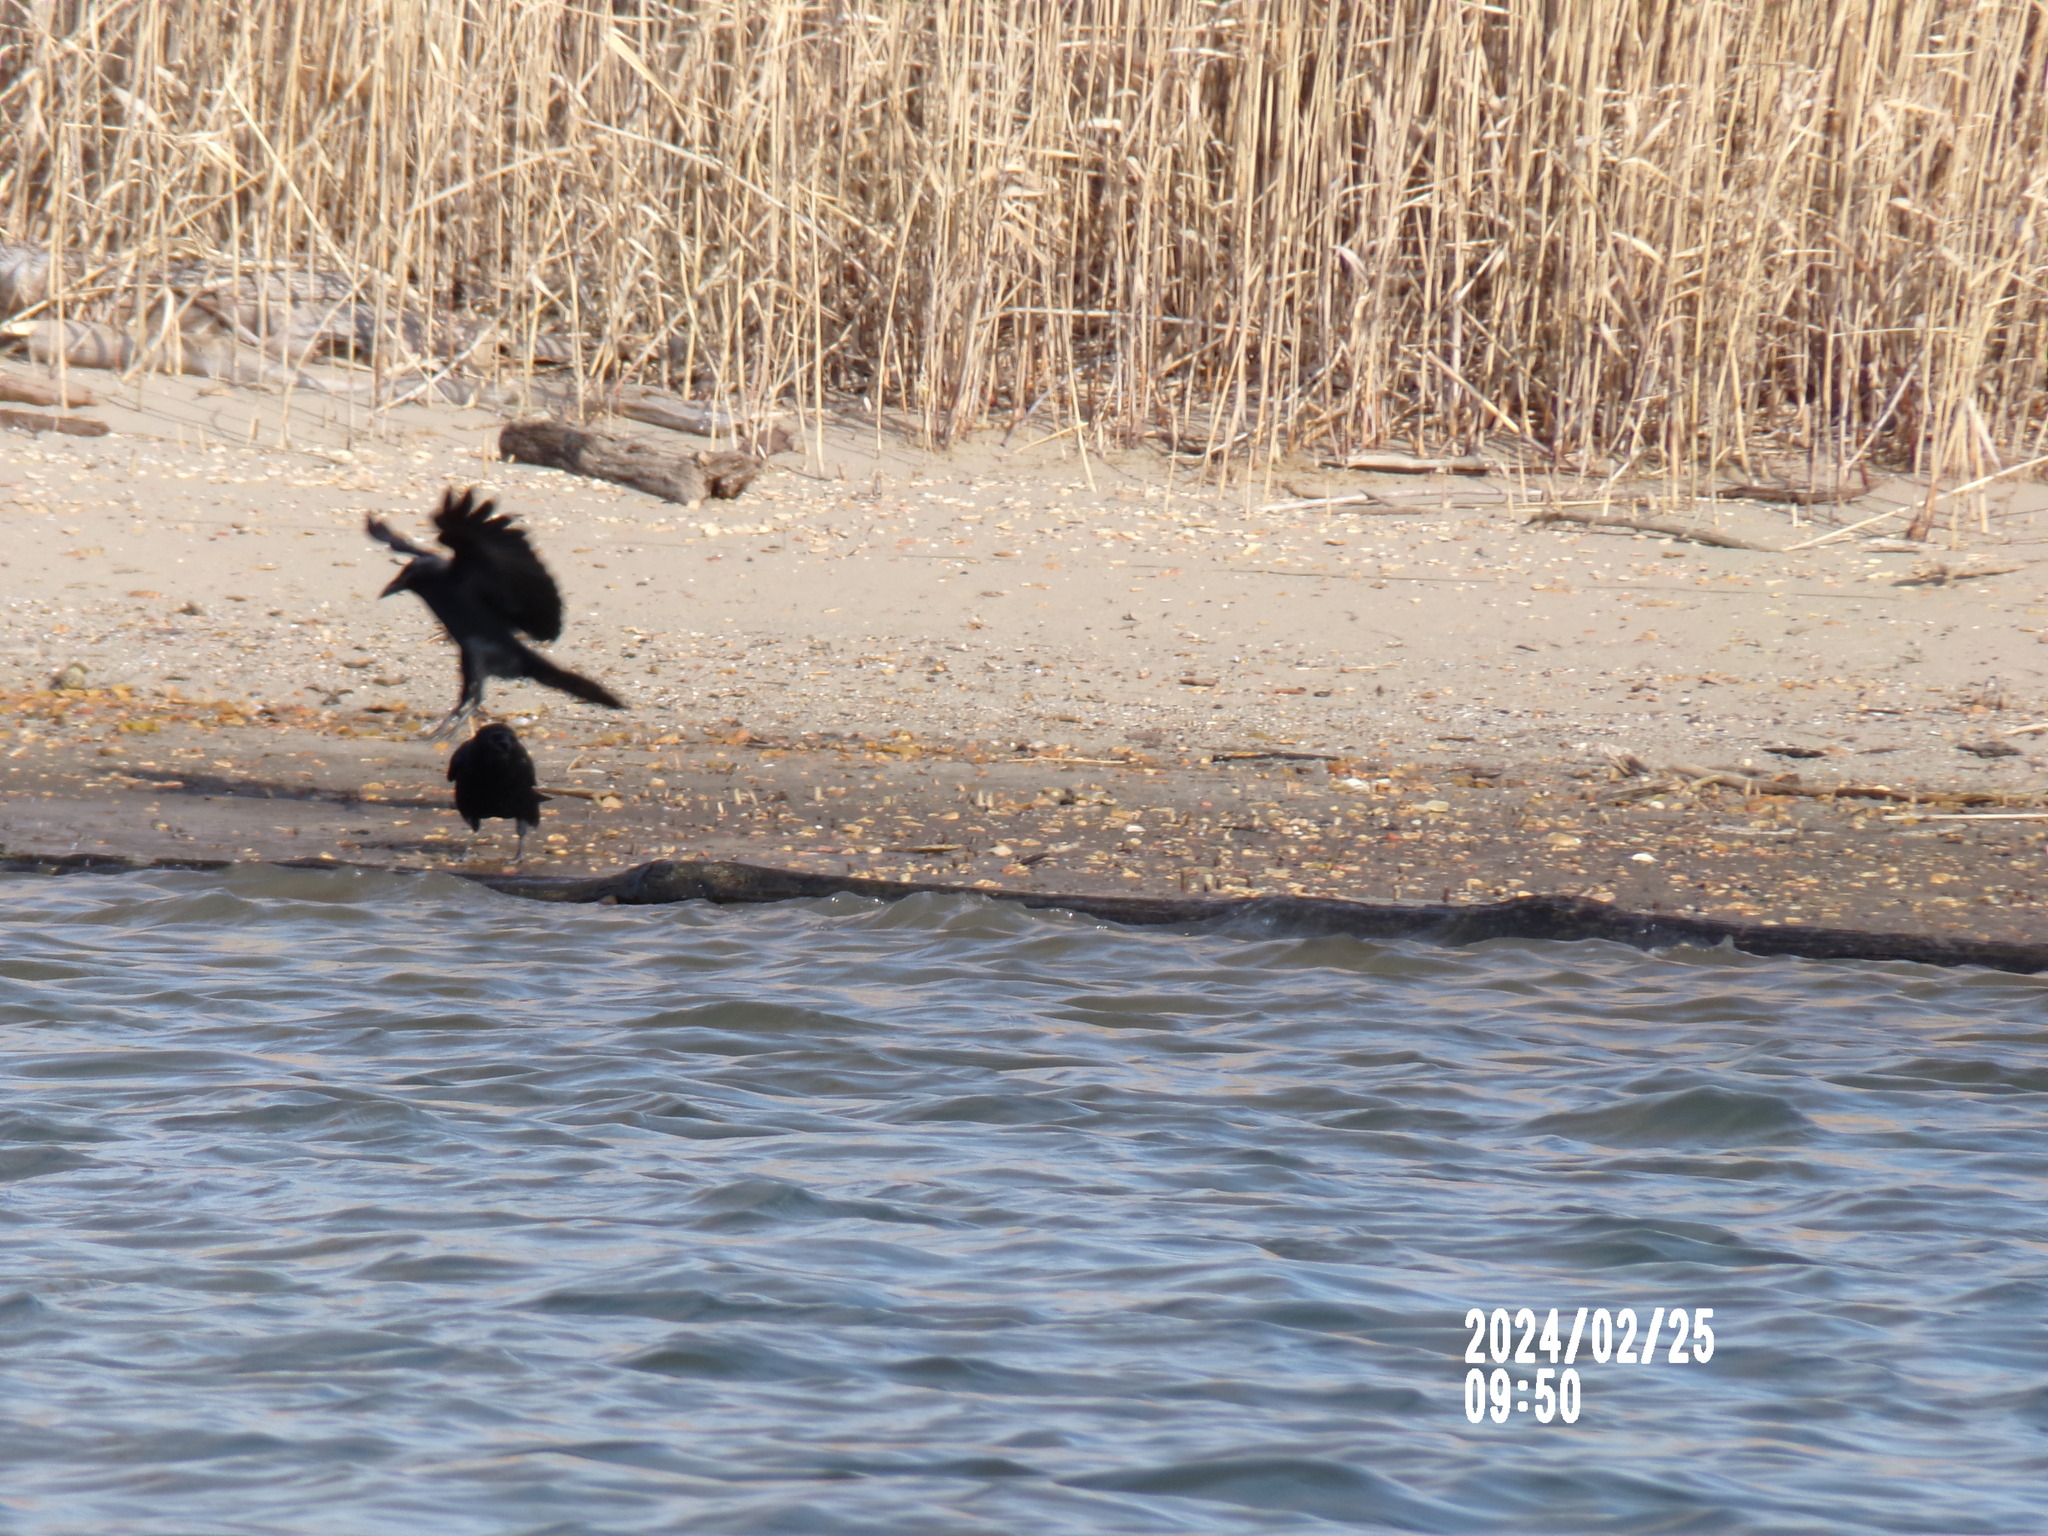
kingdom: Animalia
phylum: Chordata
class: Aves
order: Passeriformes
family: Corvidae
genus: Corvus
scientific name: Corvus brachyrhynchos
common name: American crow
